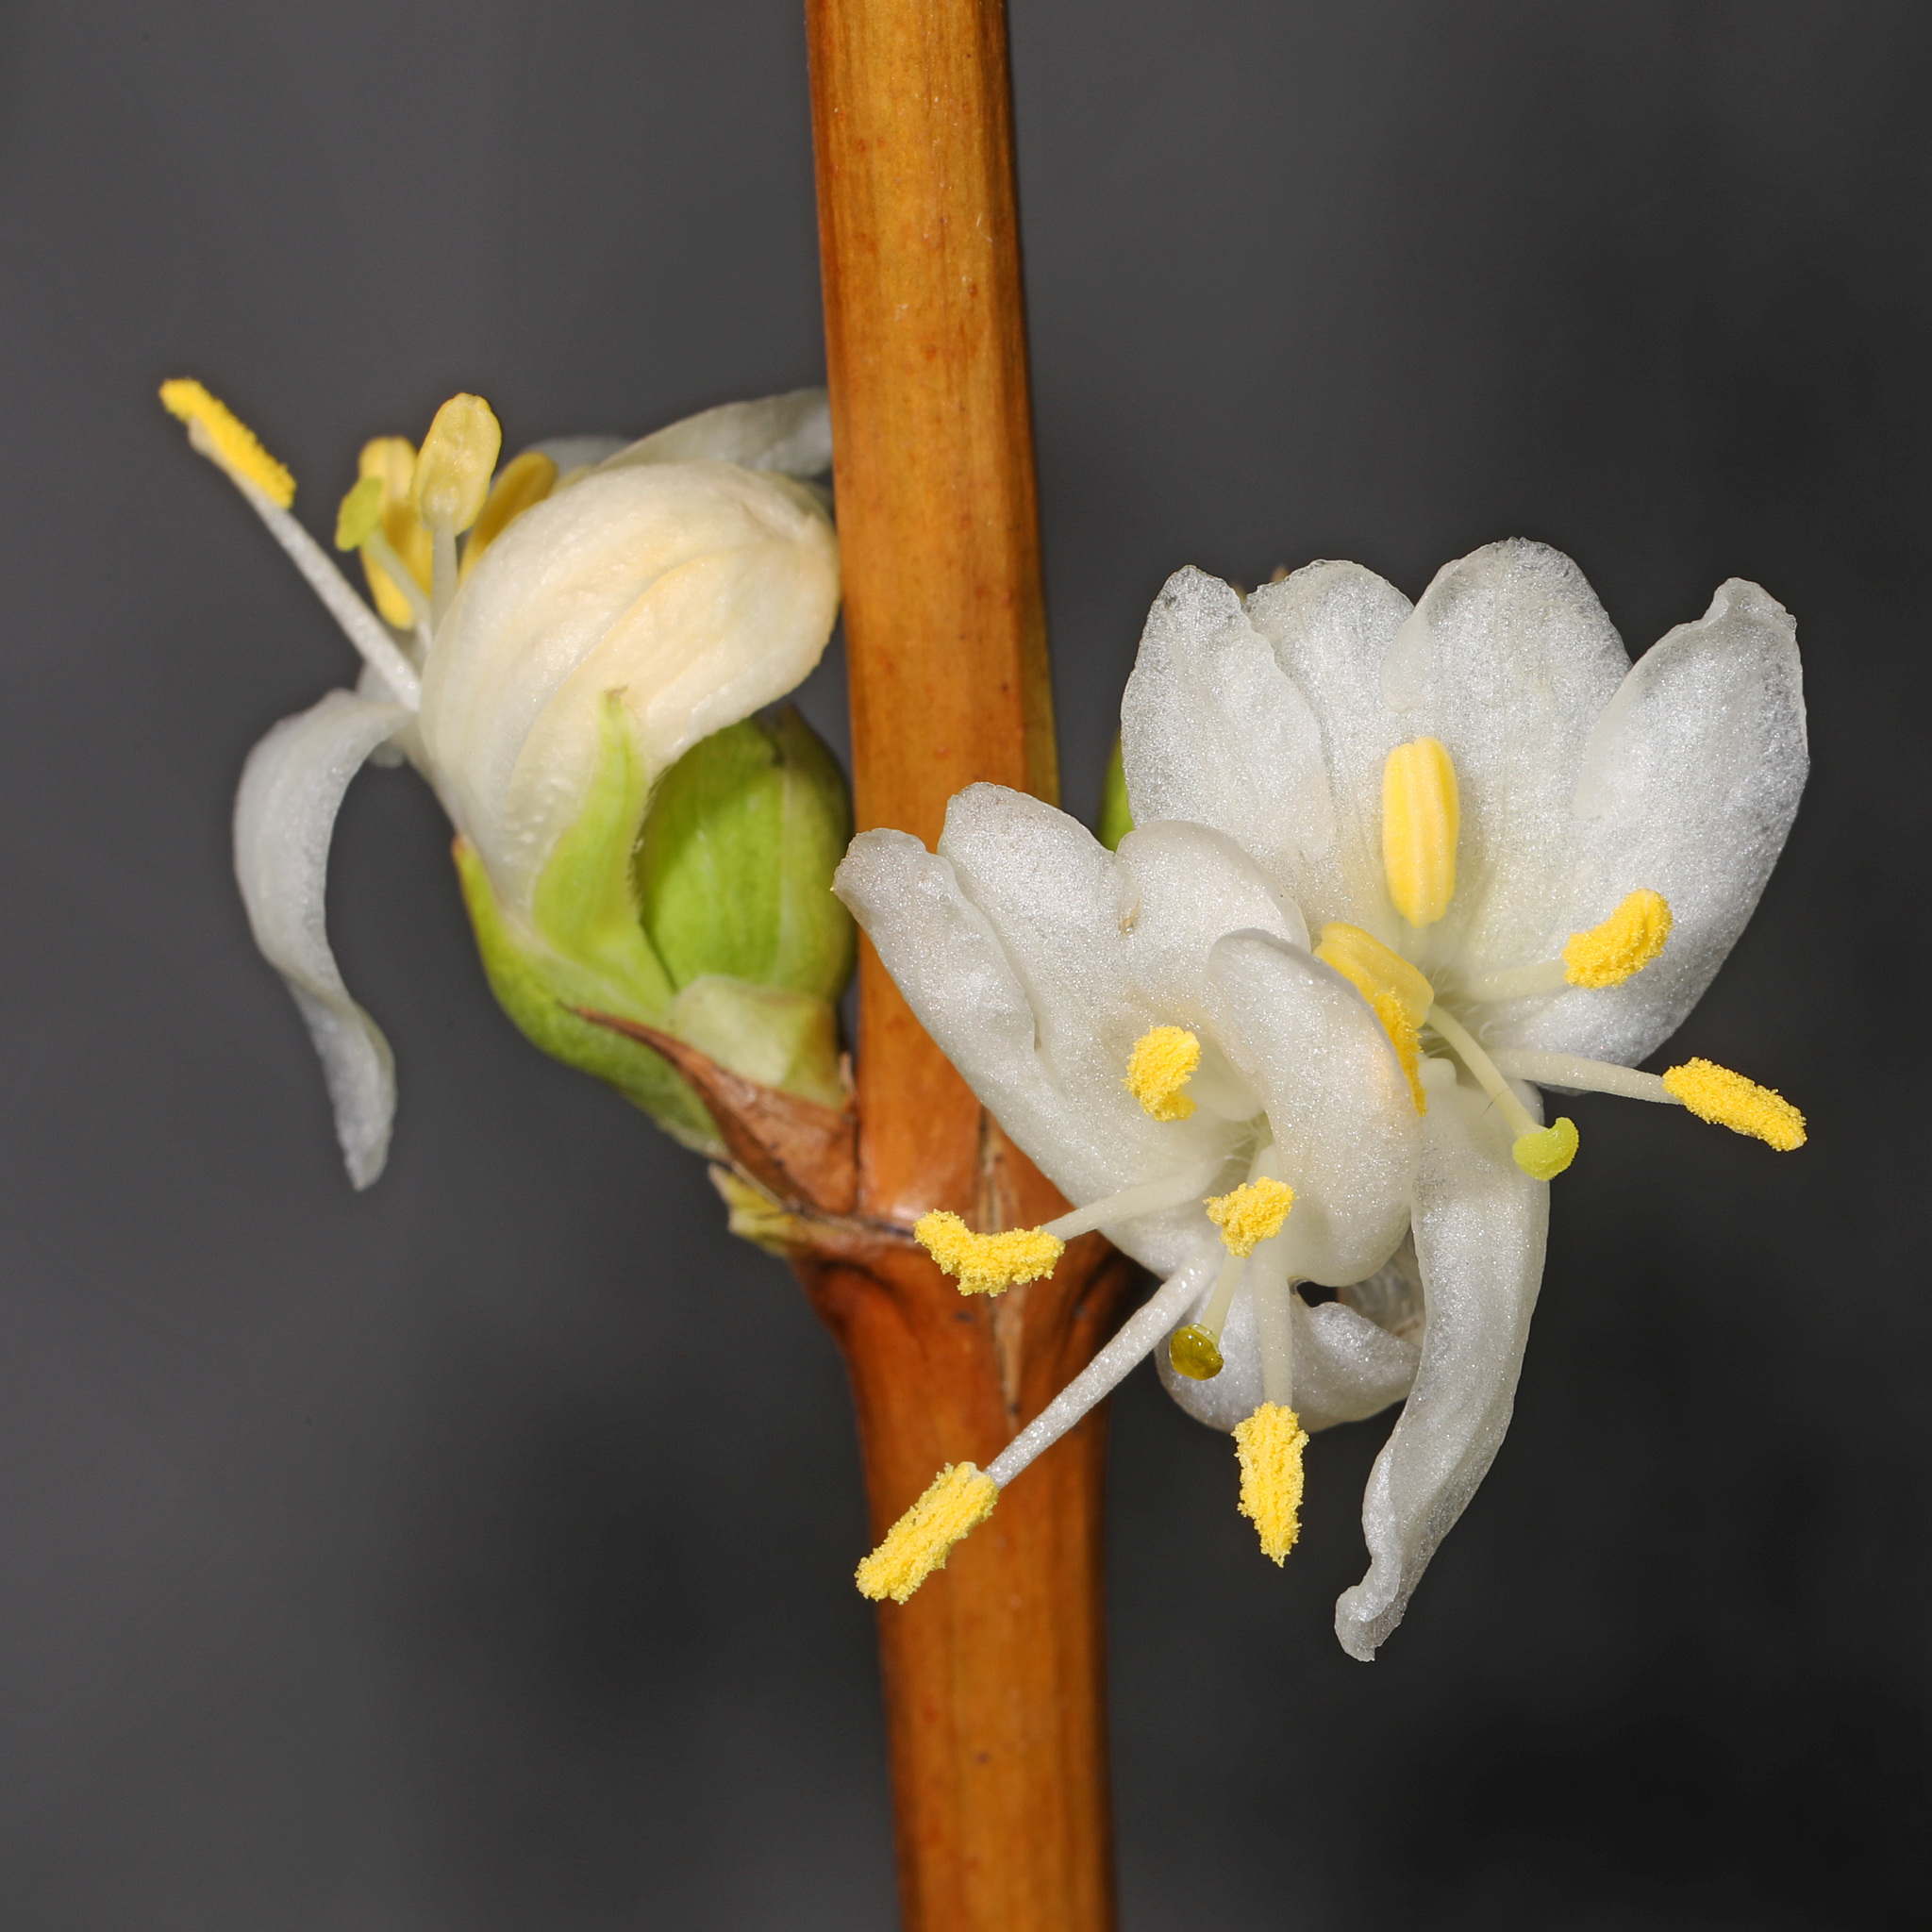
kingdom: Plantae
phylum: Tracheophyta
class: Magnoliopsida
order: Dipsacales
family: Caprifoliaceae
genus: Lonicera
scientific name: Lonicera fragrantissima
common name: Fragrant honeysuckle
